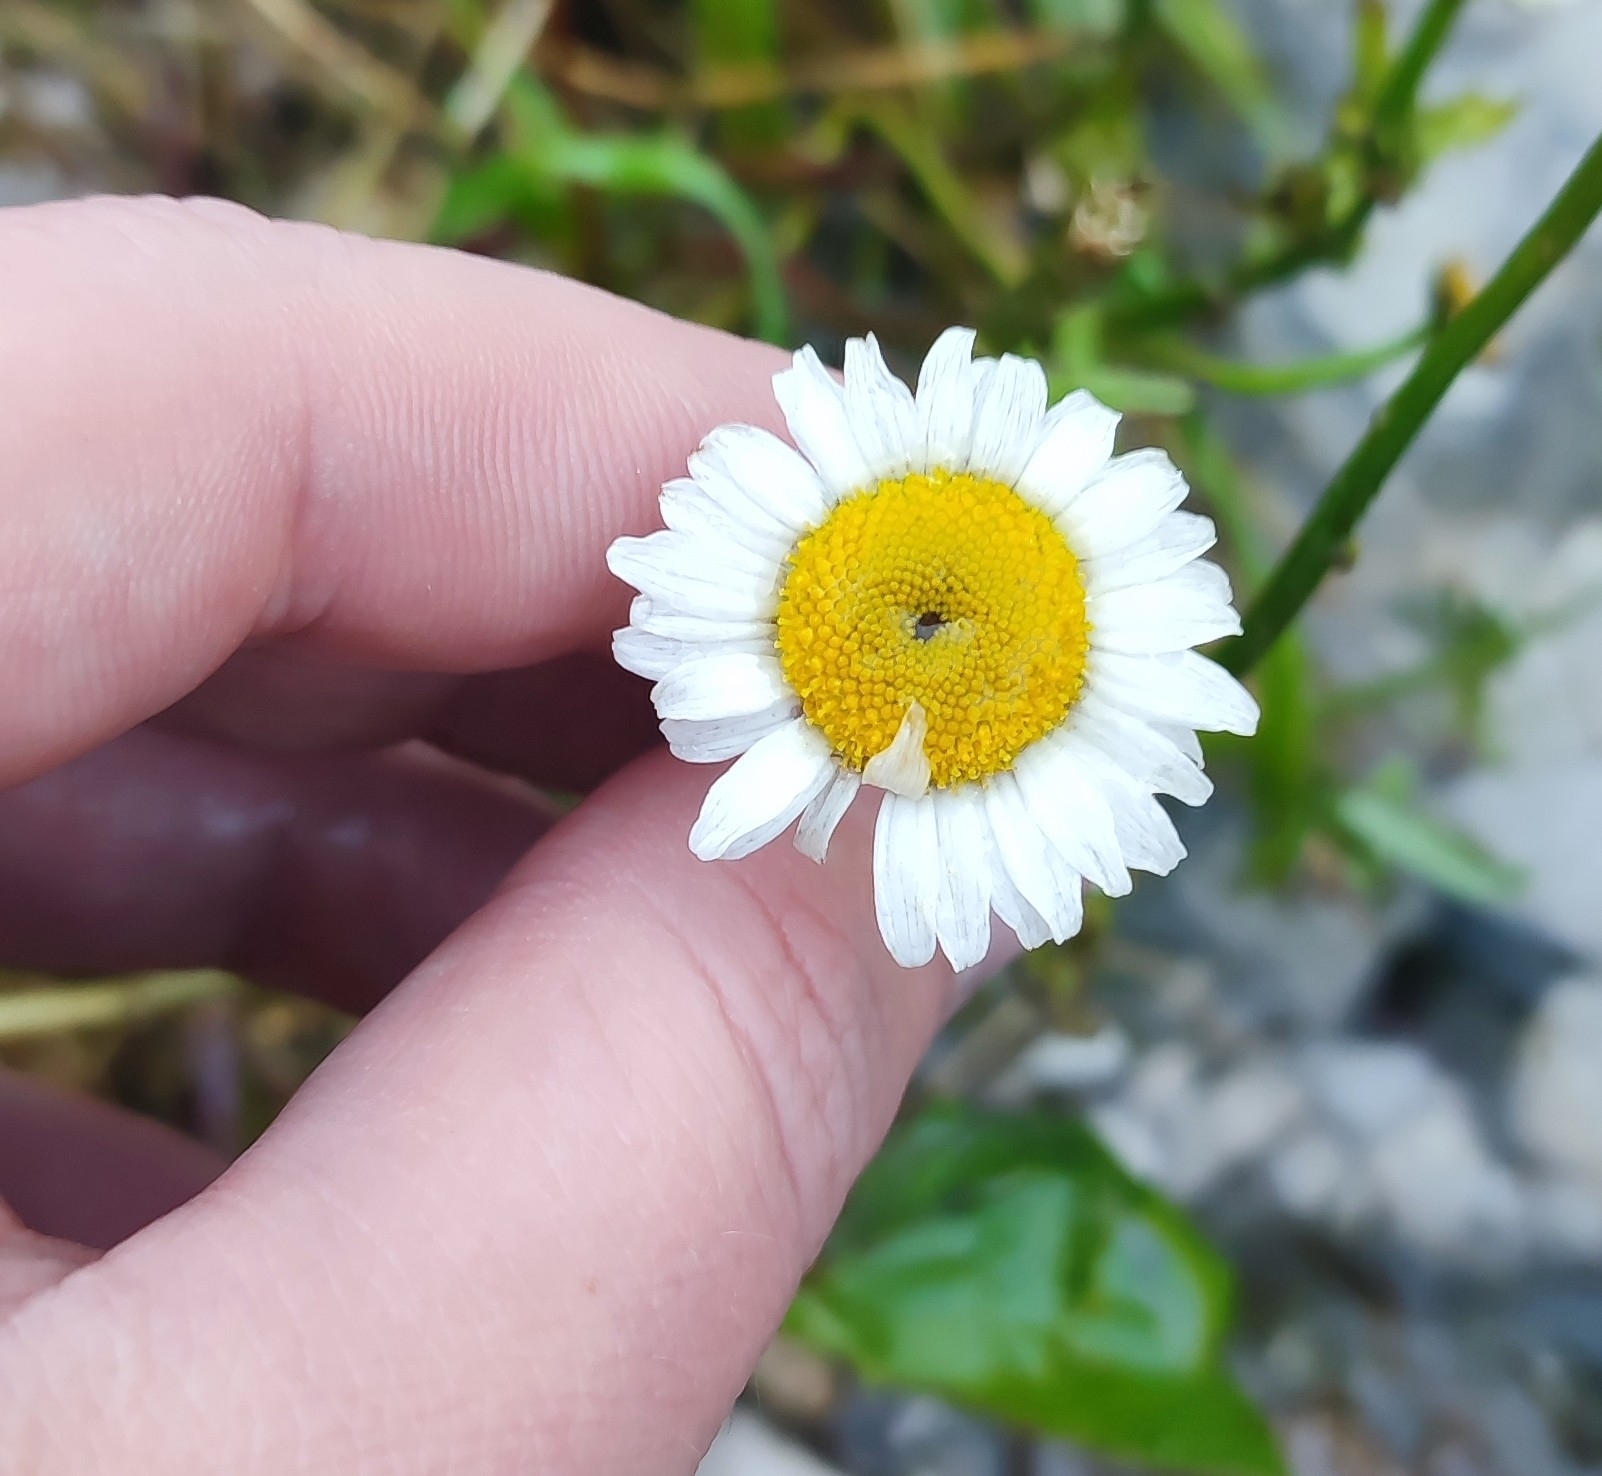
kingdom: Plantae
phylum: Tracheophyta
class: Magnoliopsida
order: Asterales
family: Asteraceae
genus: Leucanthemum
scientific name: Leucanthemum vulgare
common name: Oxeye daisy
